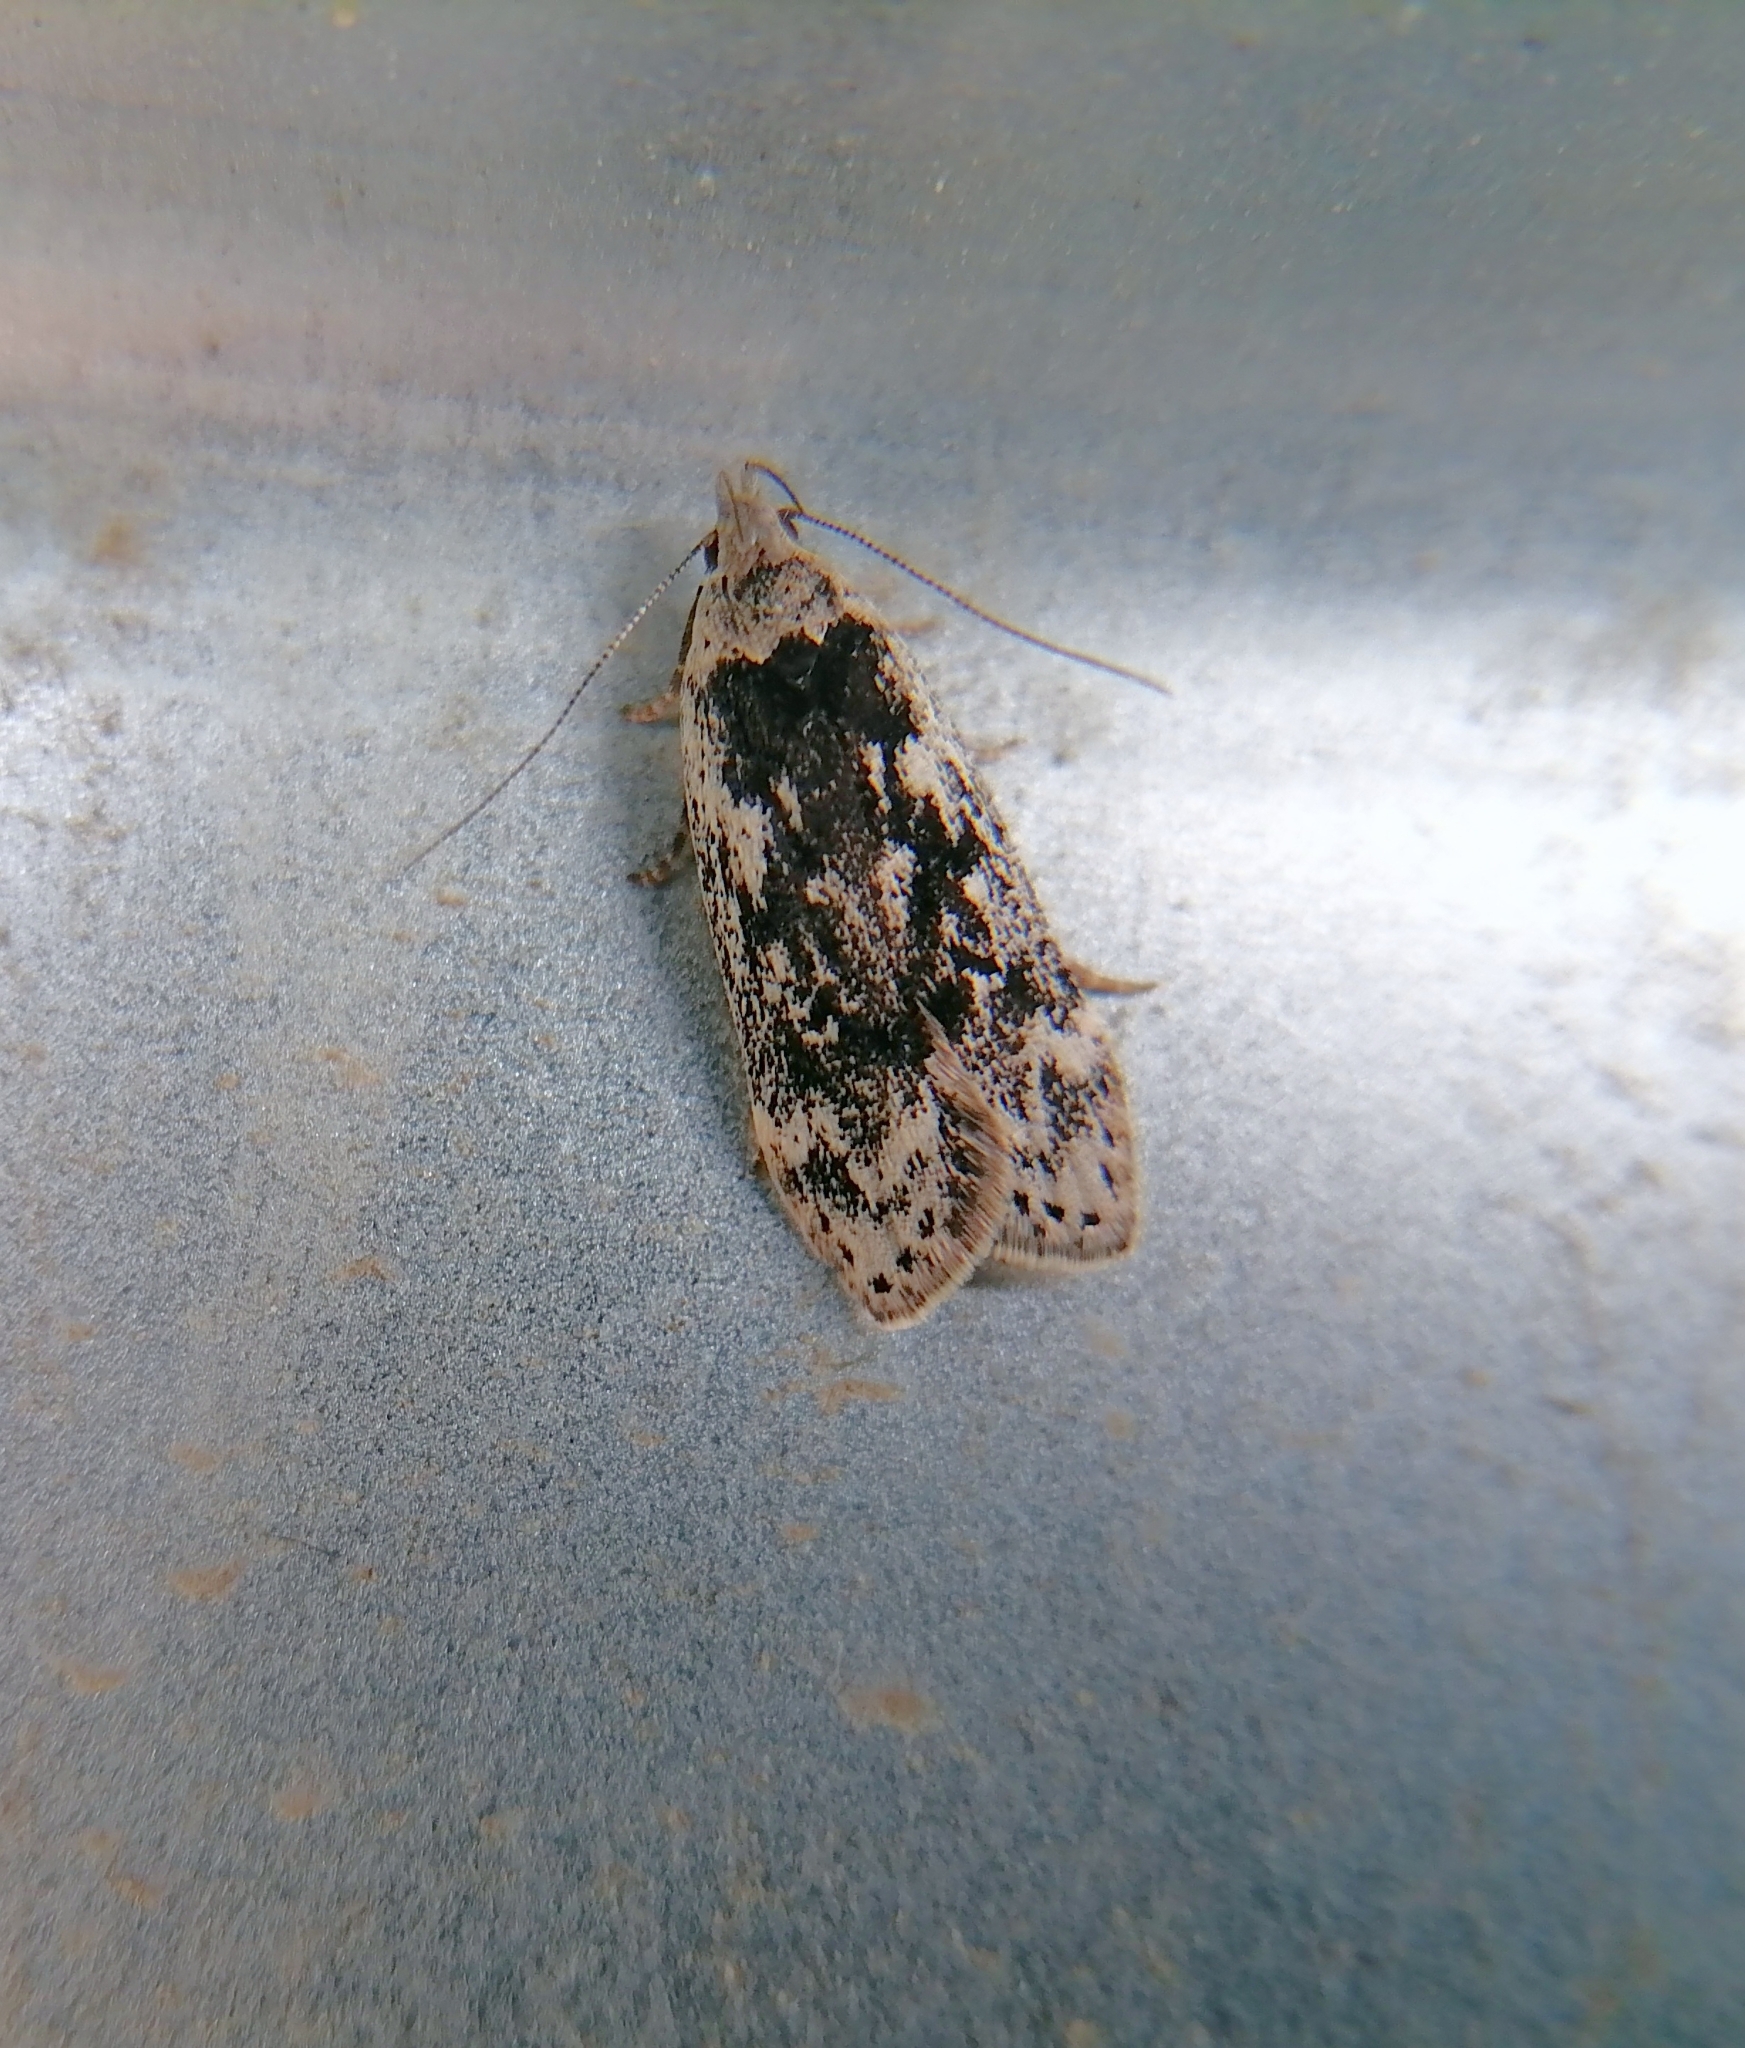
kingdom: Animalia
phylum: Arthropoda
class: Insecta
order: Lepidoptera
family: Gelechiidae
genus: Anacampsis
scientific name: Anacampsis blattariella
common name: Birch sober
